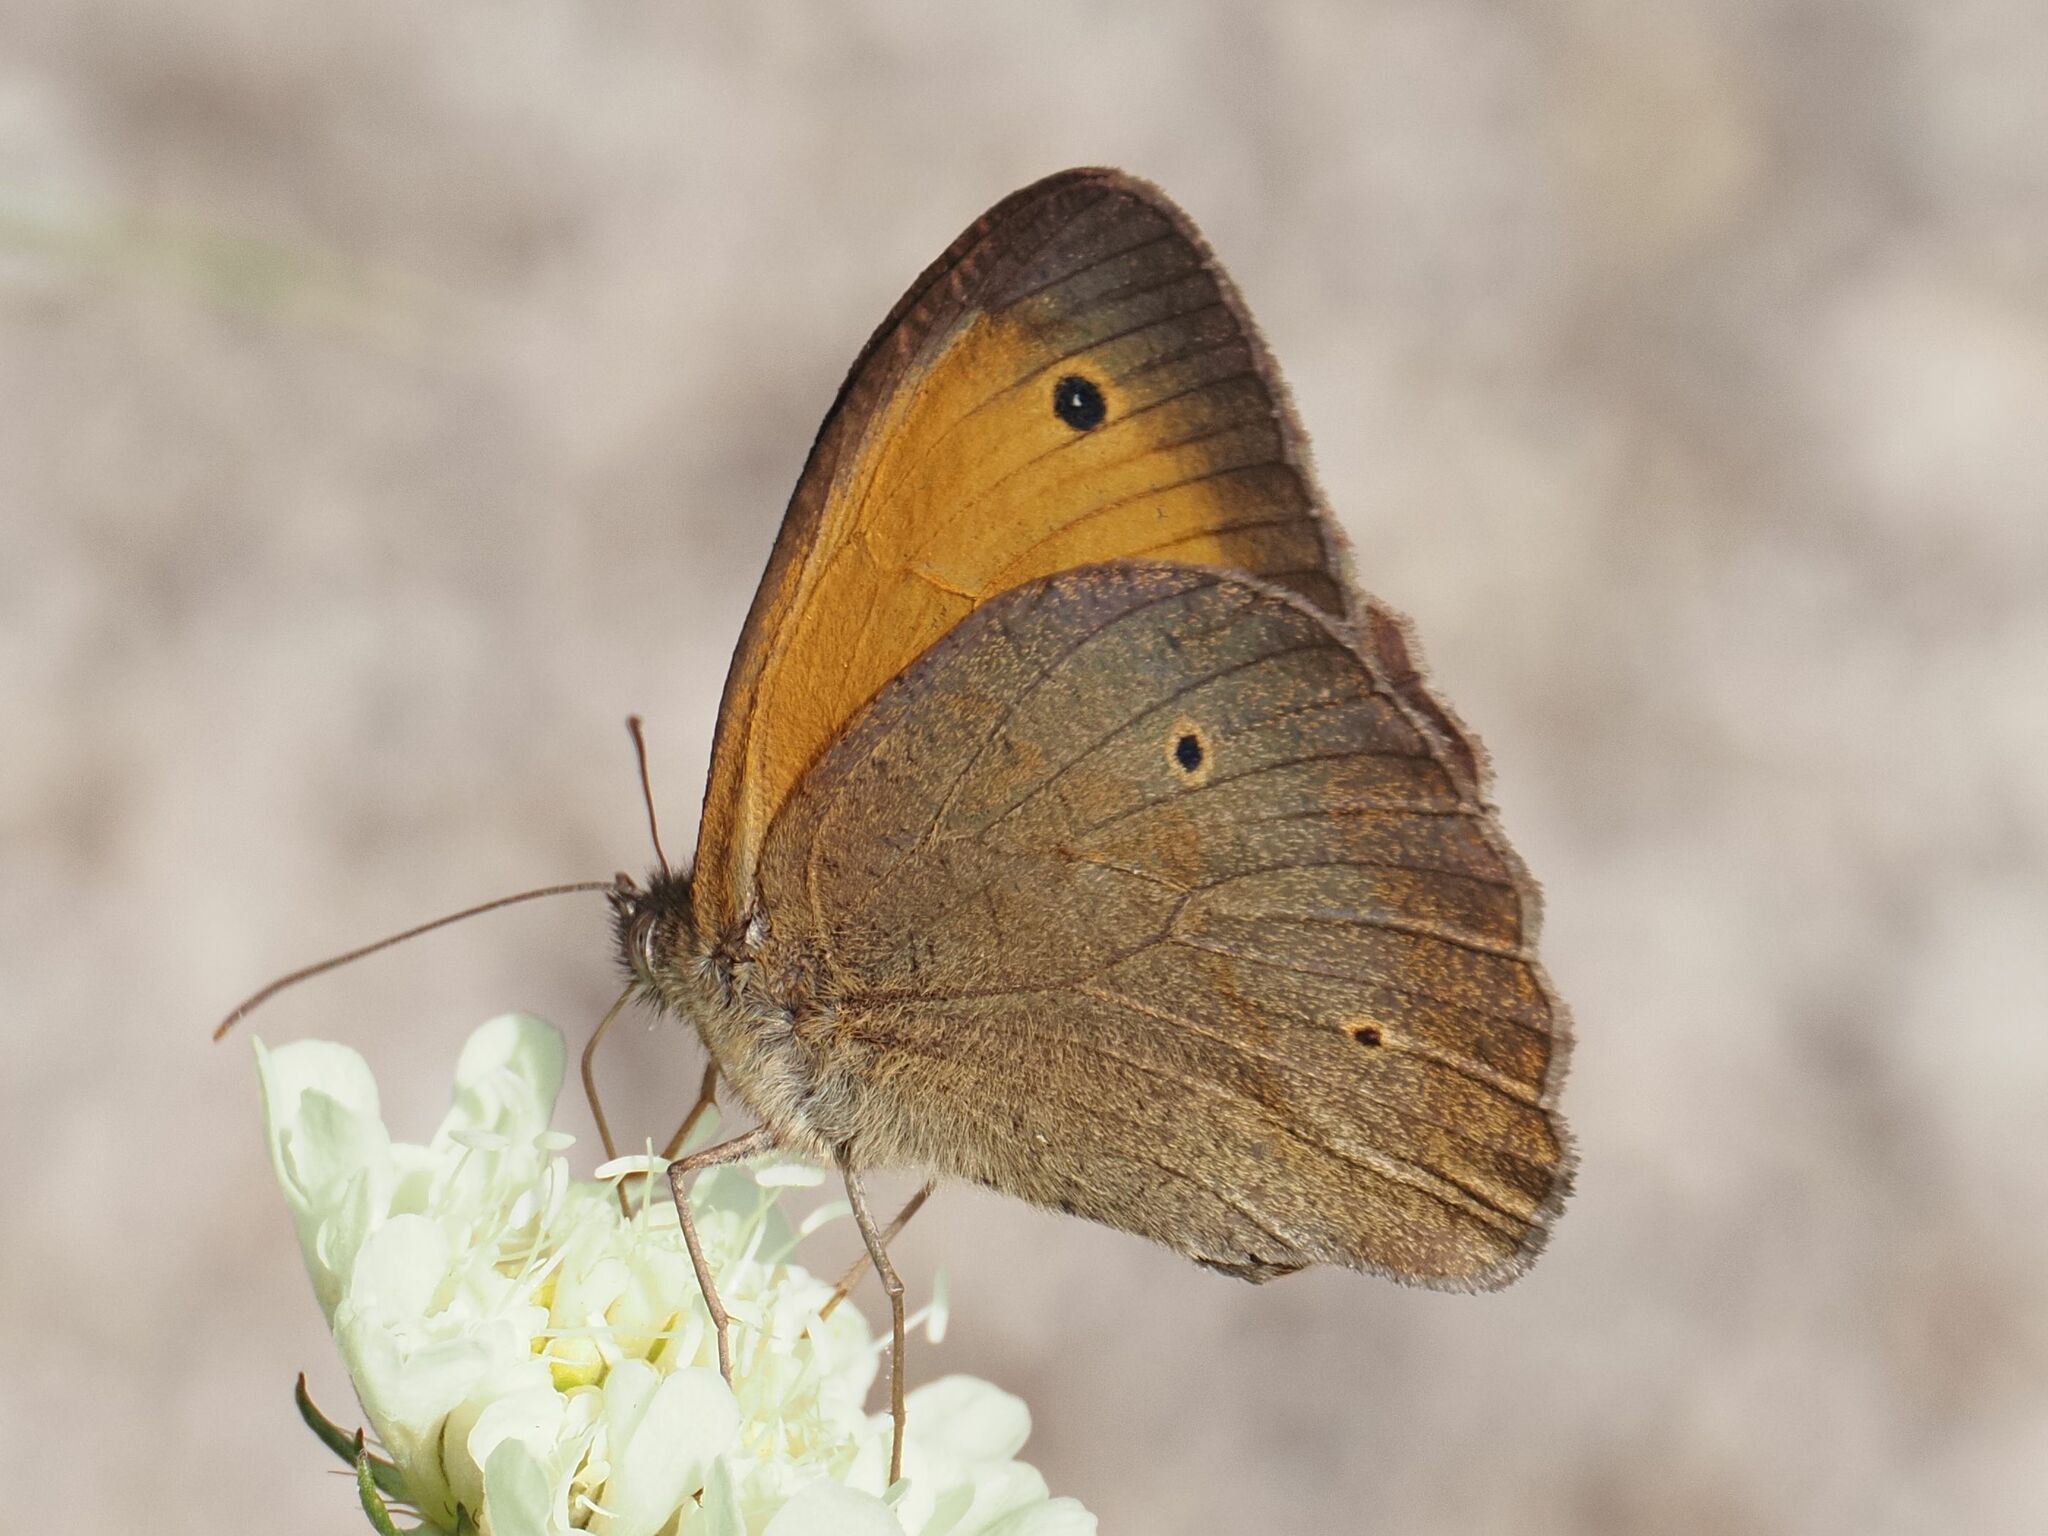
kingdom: Animalia
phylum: Arthropoda
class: Insecta
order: Lepidoptera
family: Nymphalidae
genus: Maniola
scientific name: Maniola jurtina
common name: Meadow brown
